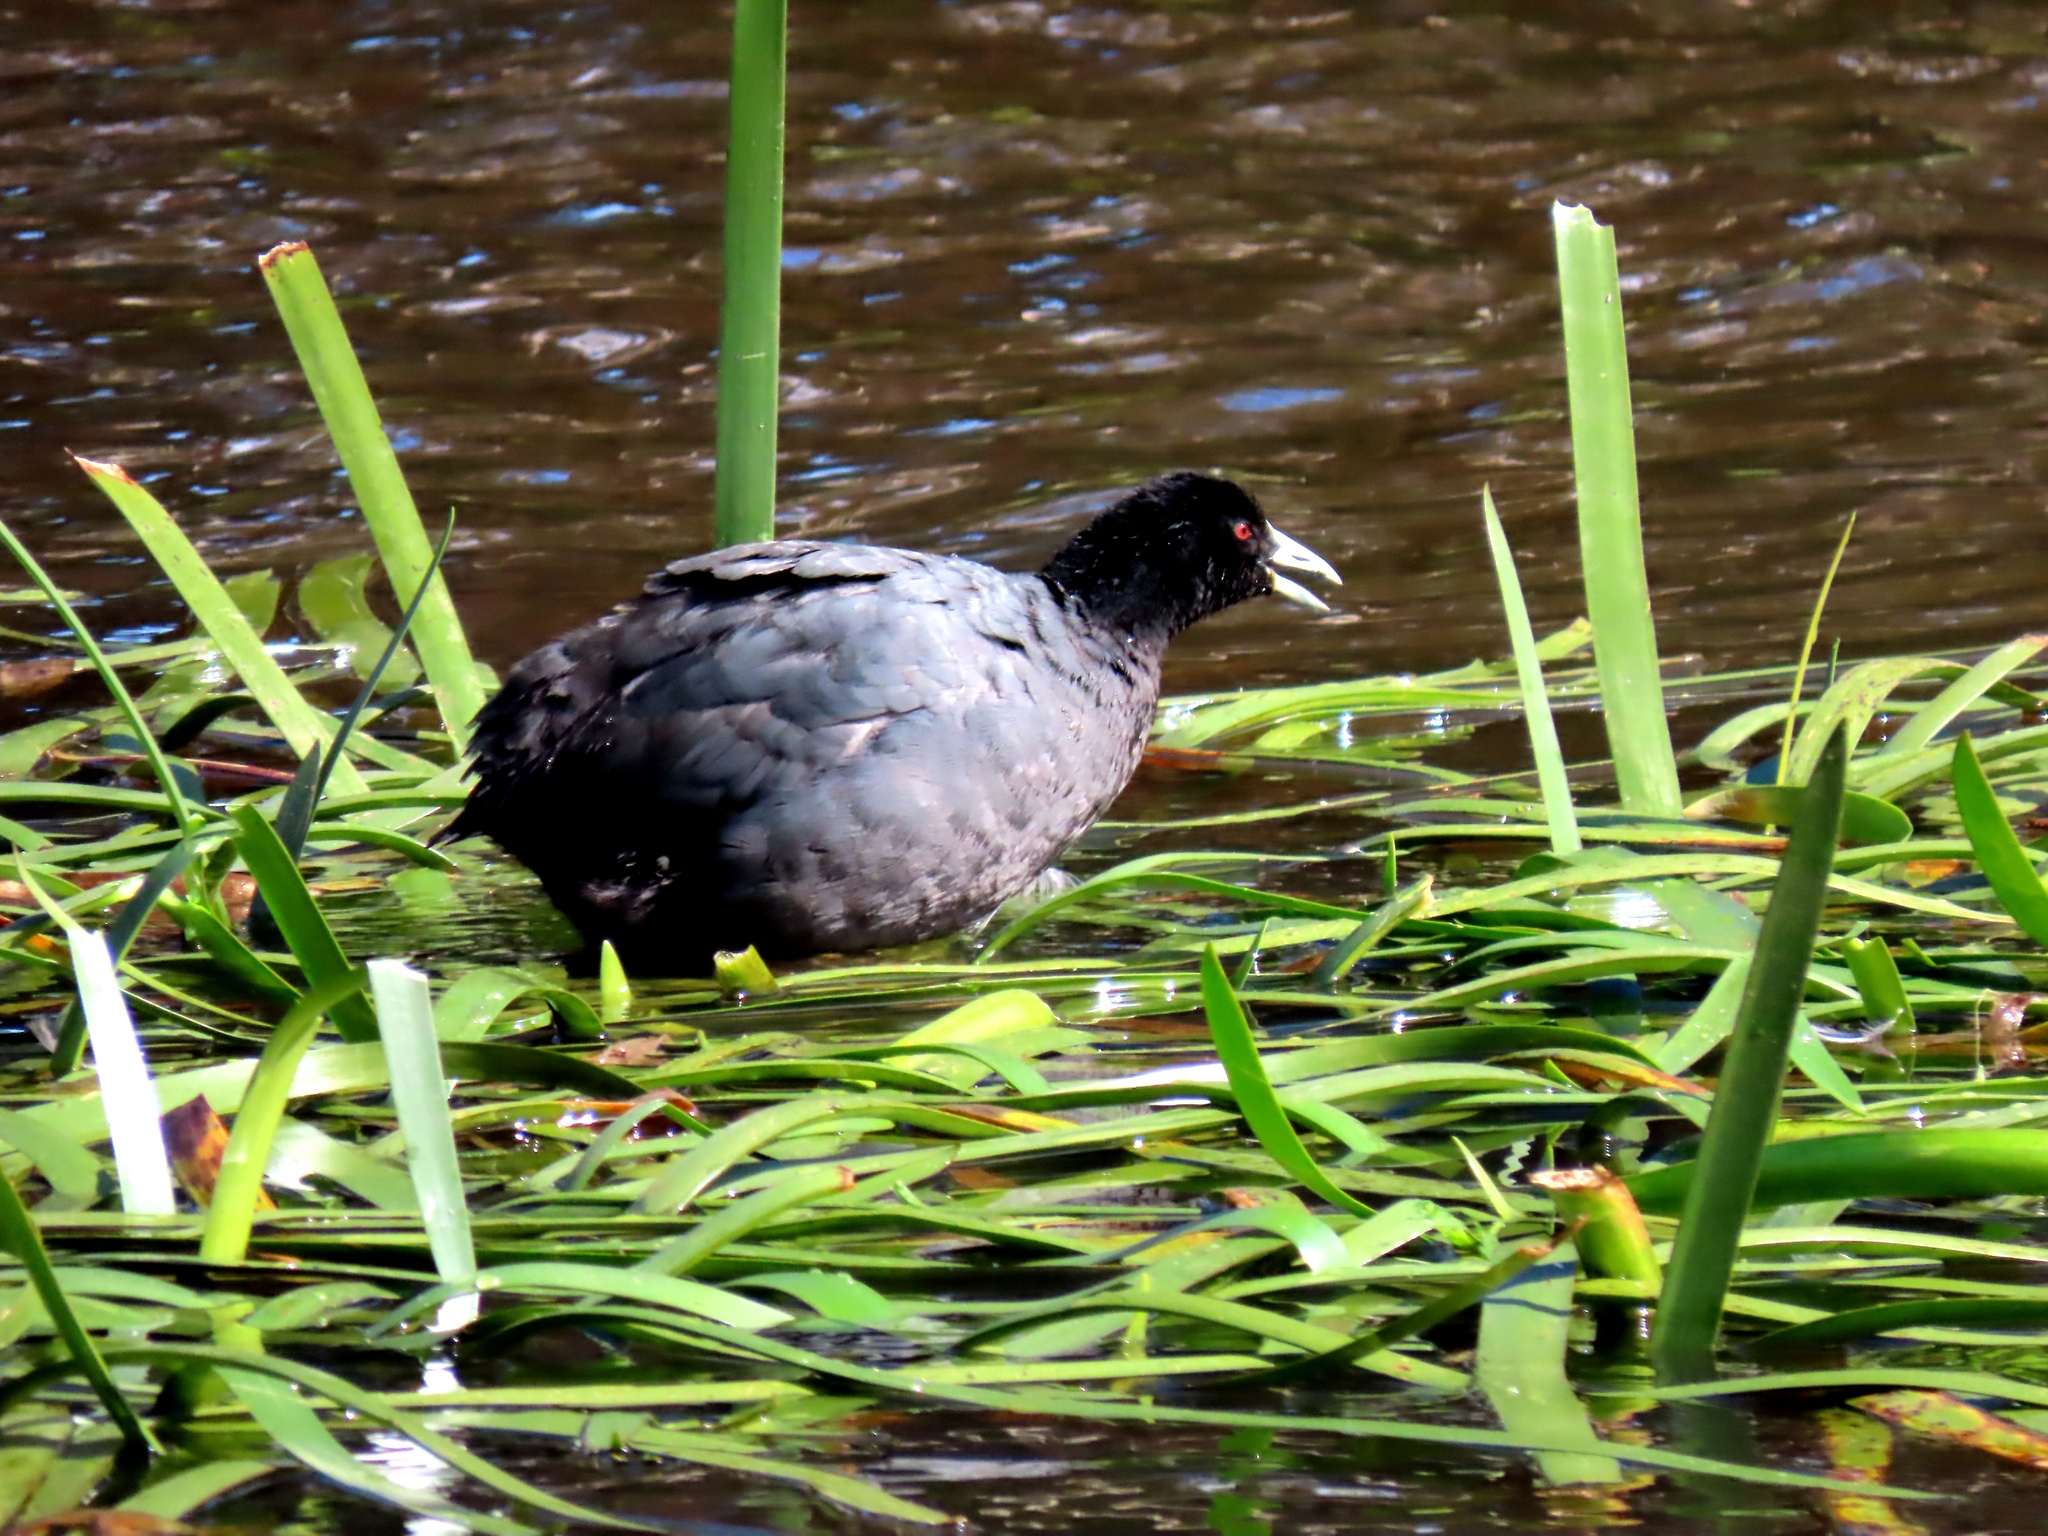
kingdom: Animalia
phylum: Chordata
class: Aves
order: Gruiformes
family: Rallidae
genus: Fulica
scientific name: Fulica atra
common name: Eurasian coot
